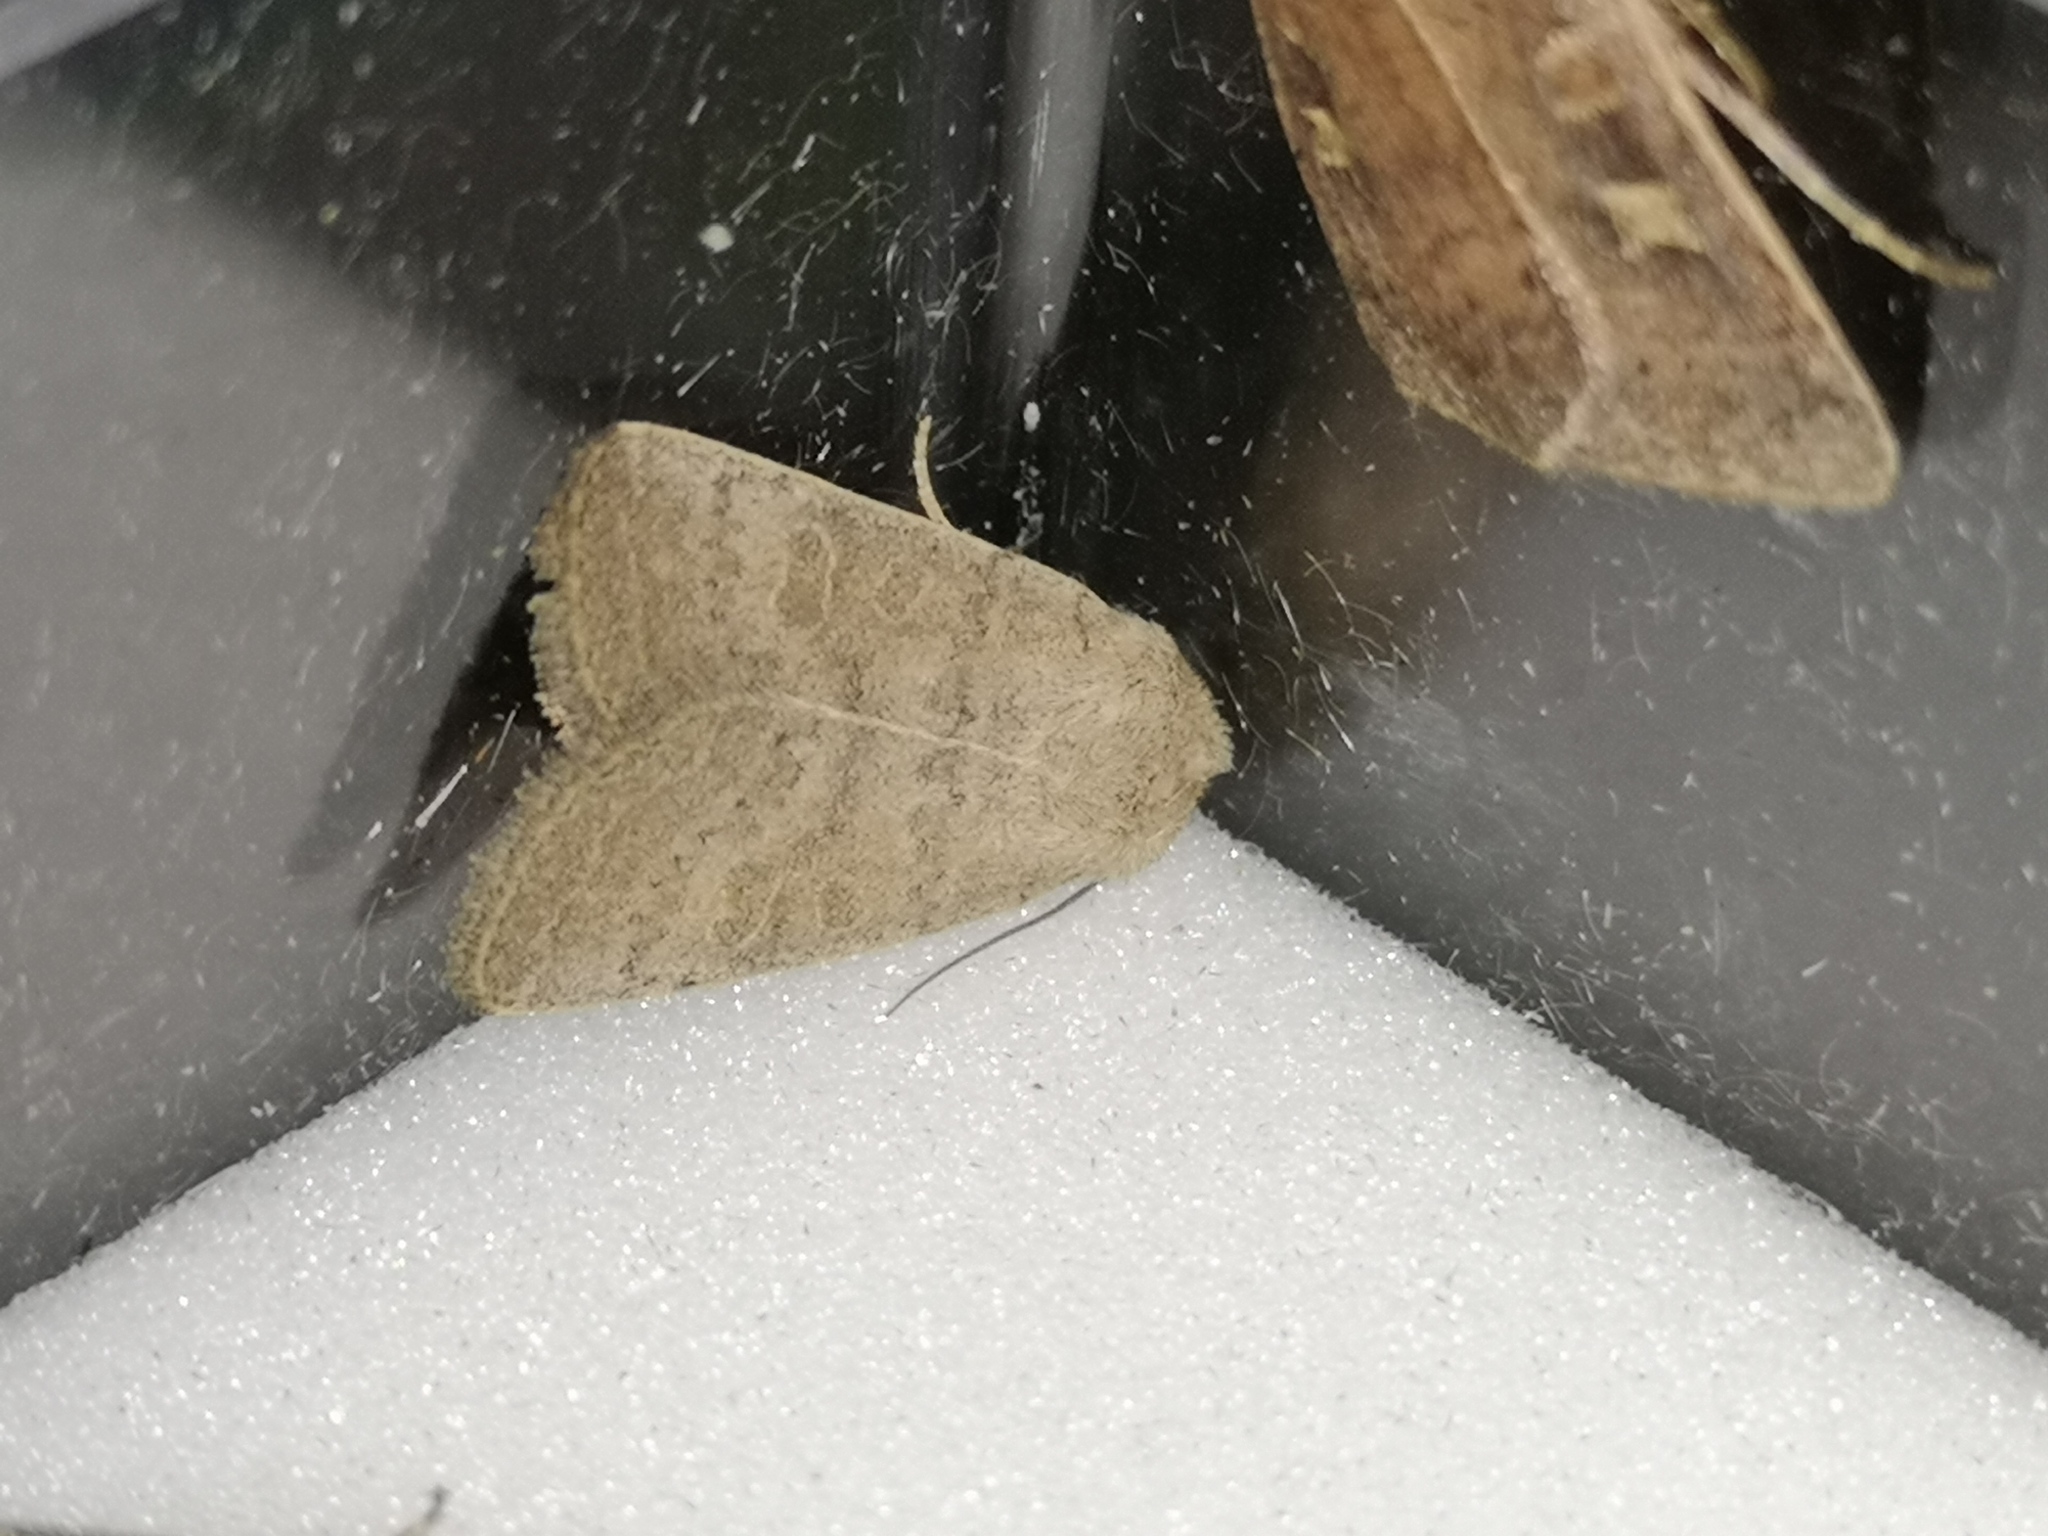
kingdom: Animalia
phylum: Arthropoda
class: Insecta
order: Lepidoptera
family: Noctuidae
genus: Hoplodrina
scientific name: Hoplodrina ambigua
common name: Vine's rustic
